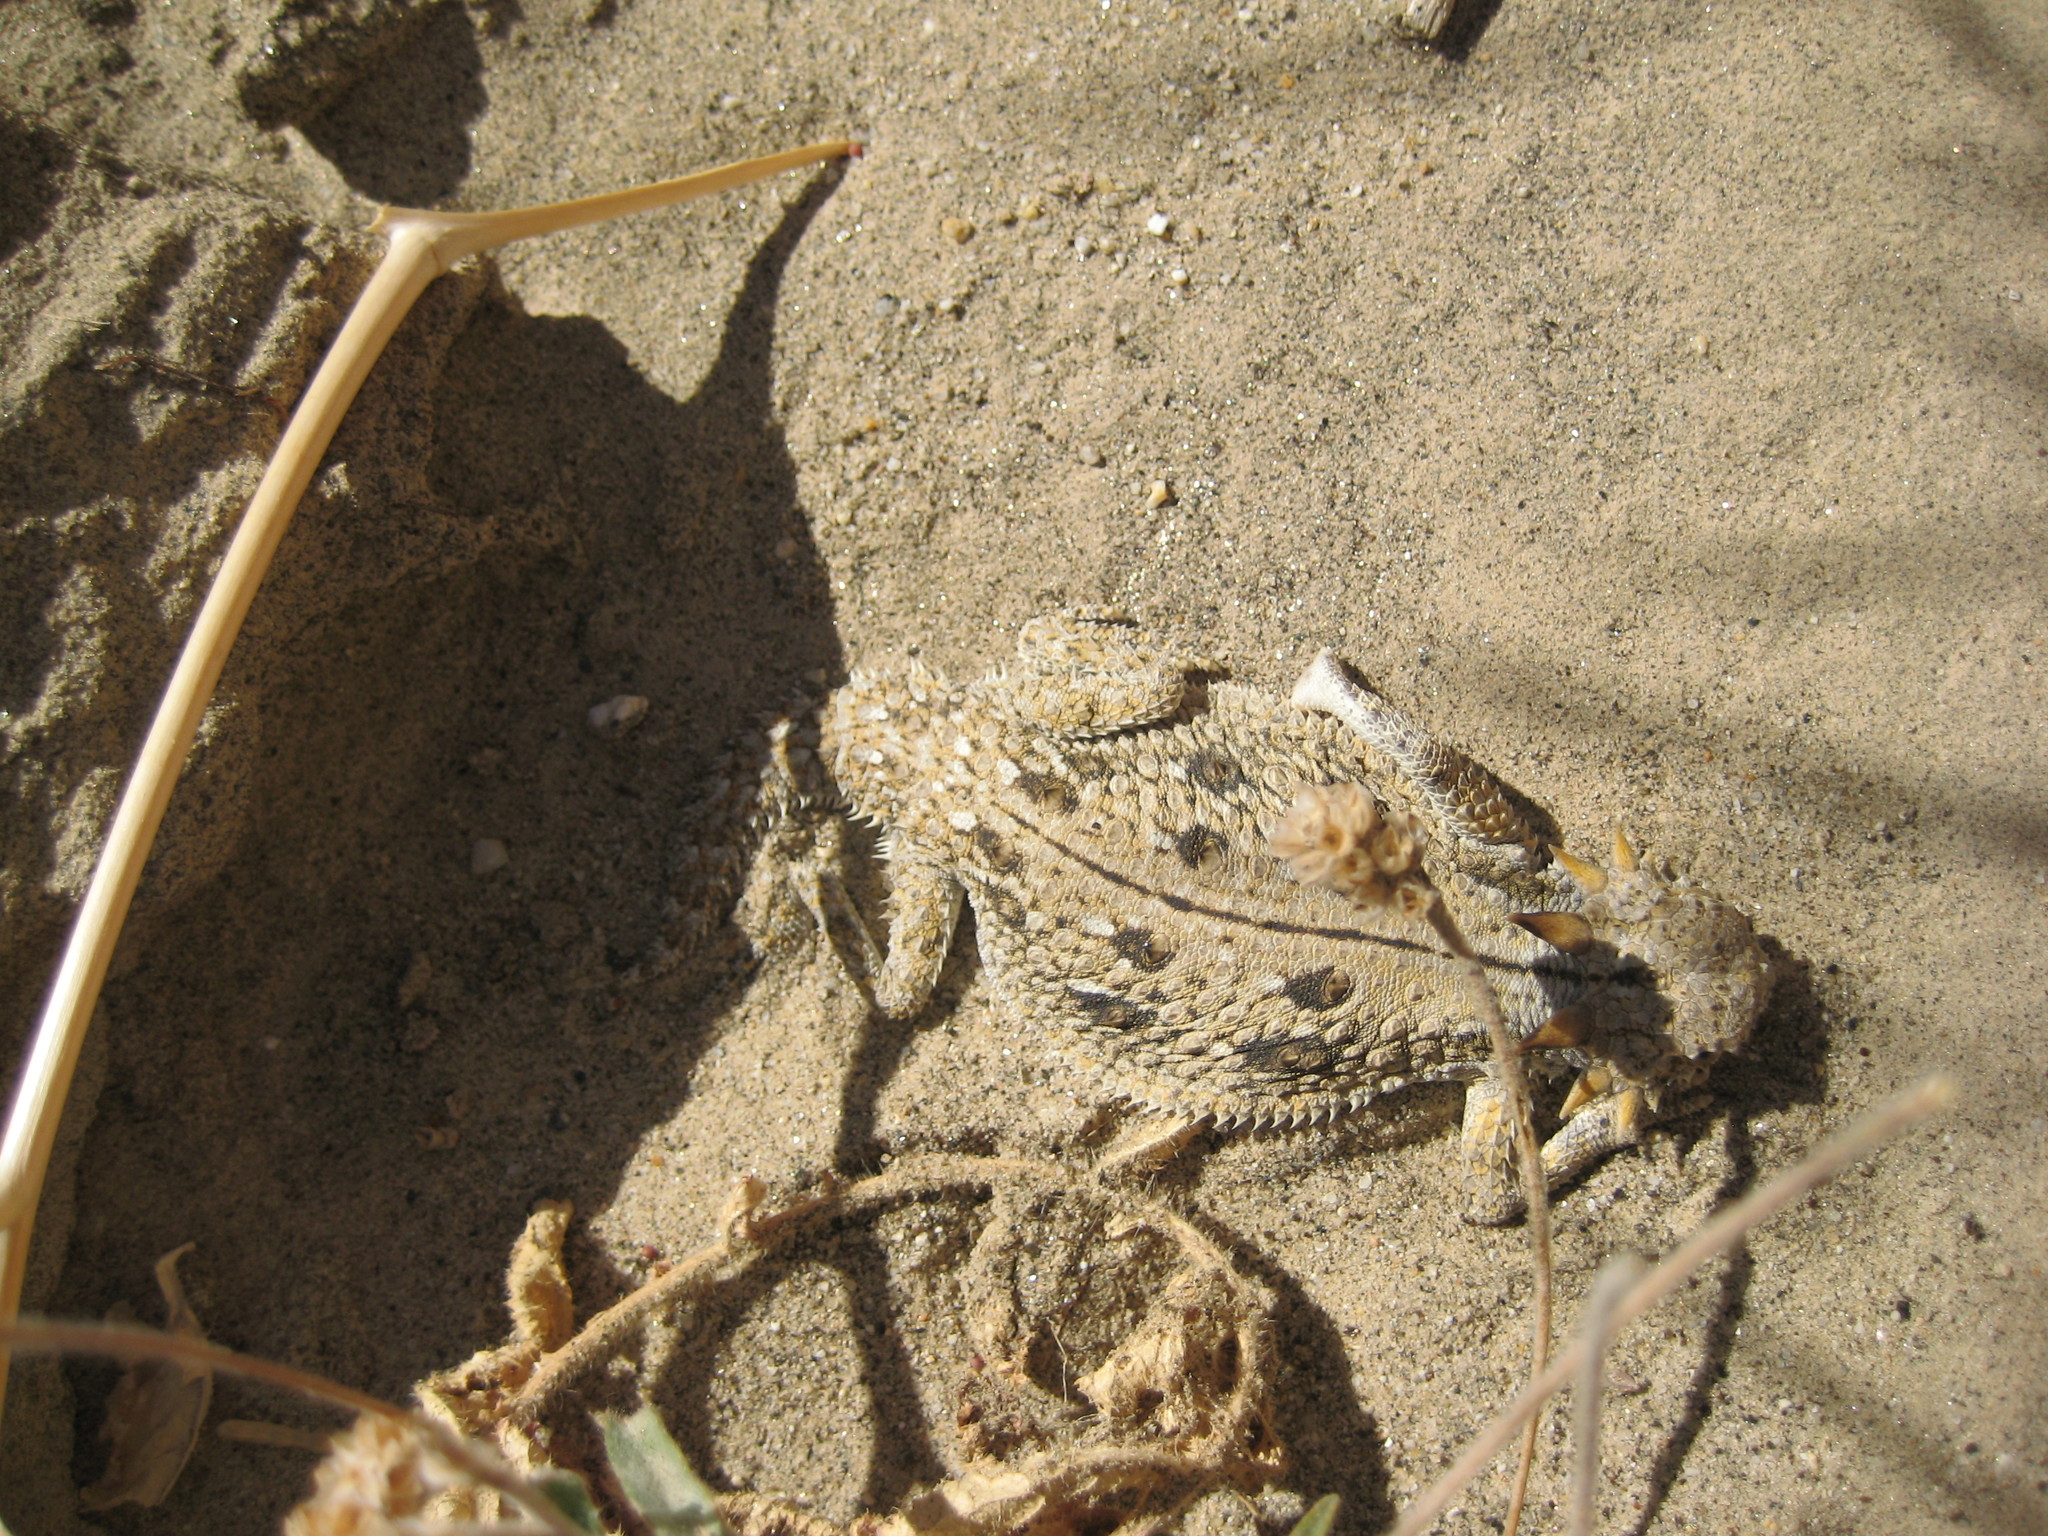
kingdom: Animalia
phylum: Chordata
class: Squamata
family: Phrynosomatidae
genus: Phrynosoma
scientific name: Phrynosoma mcallii
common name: Flat-tailed horned lizard
